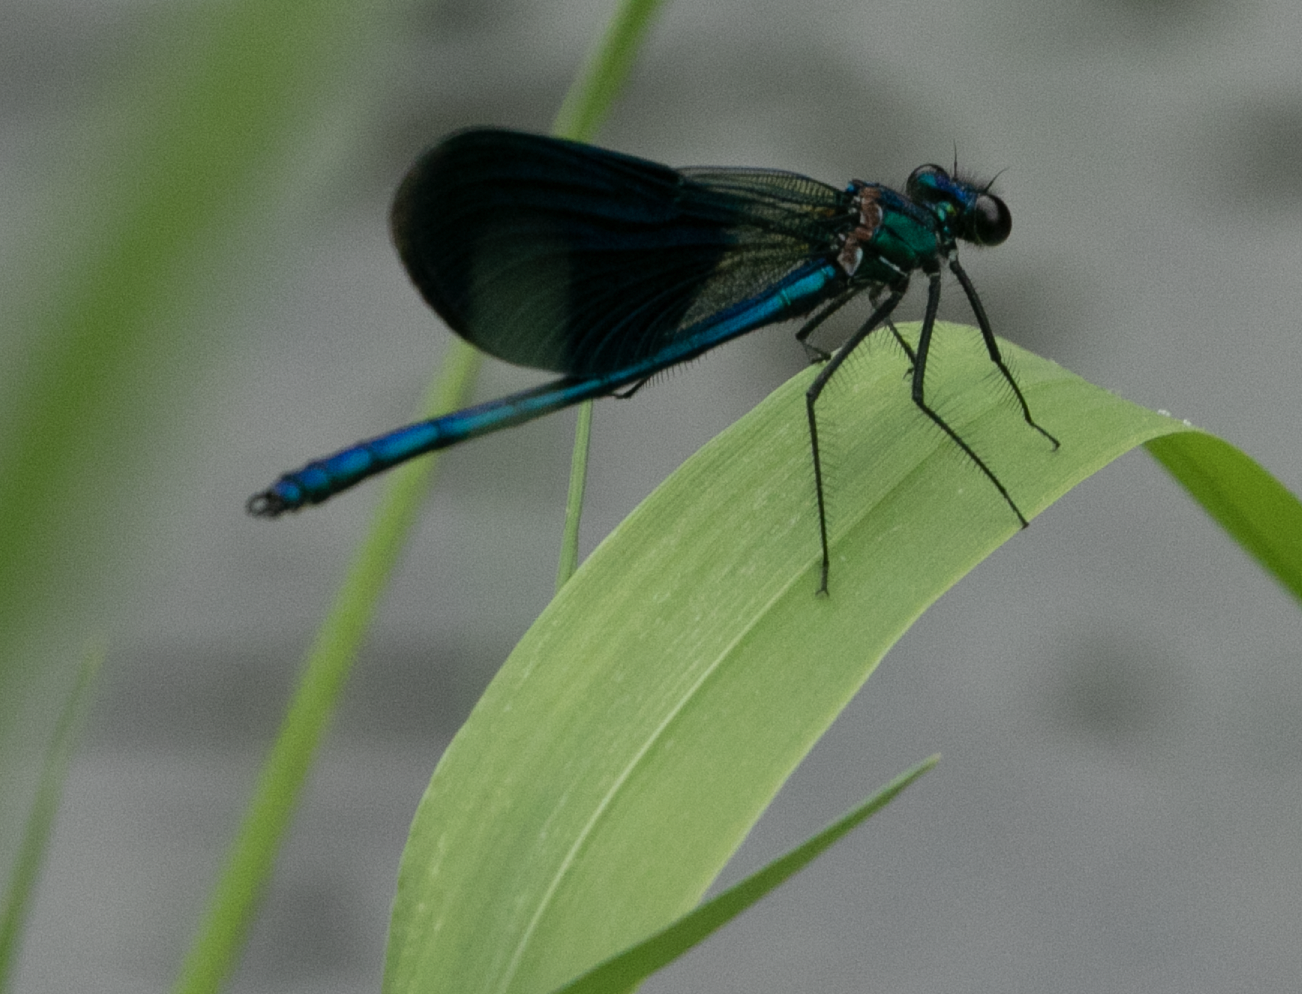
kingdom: Animalia
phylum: Arthropoda
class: Insecta
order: Odonata
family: Calopterygidae
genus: Calopteryx
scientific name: Calopteryx splendens
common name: Banded demoiselle
